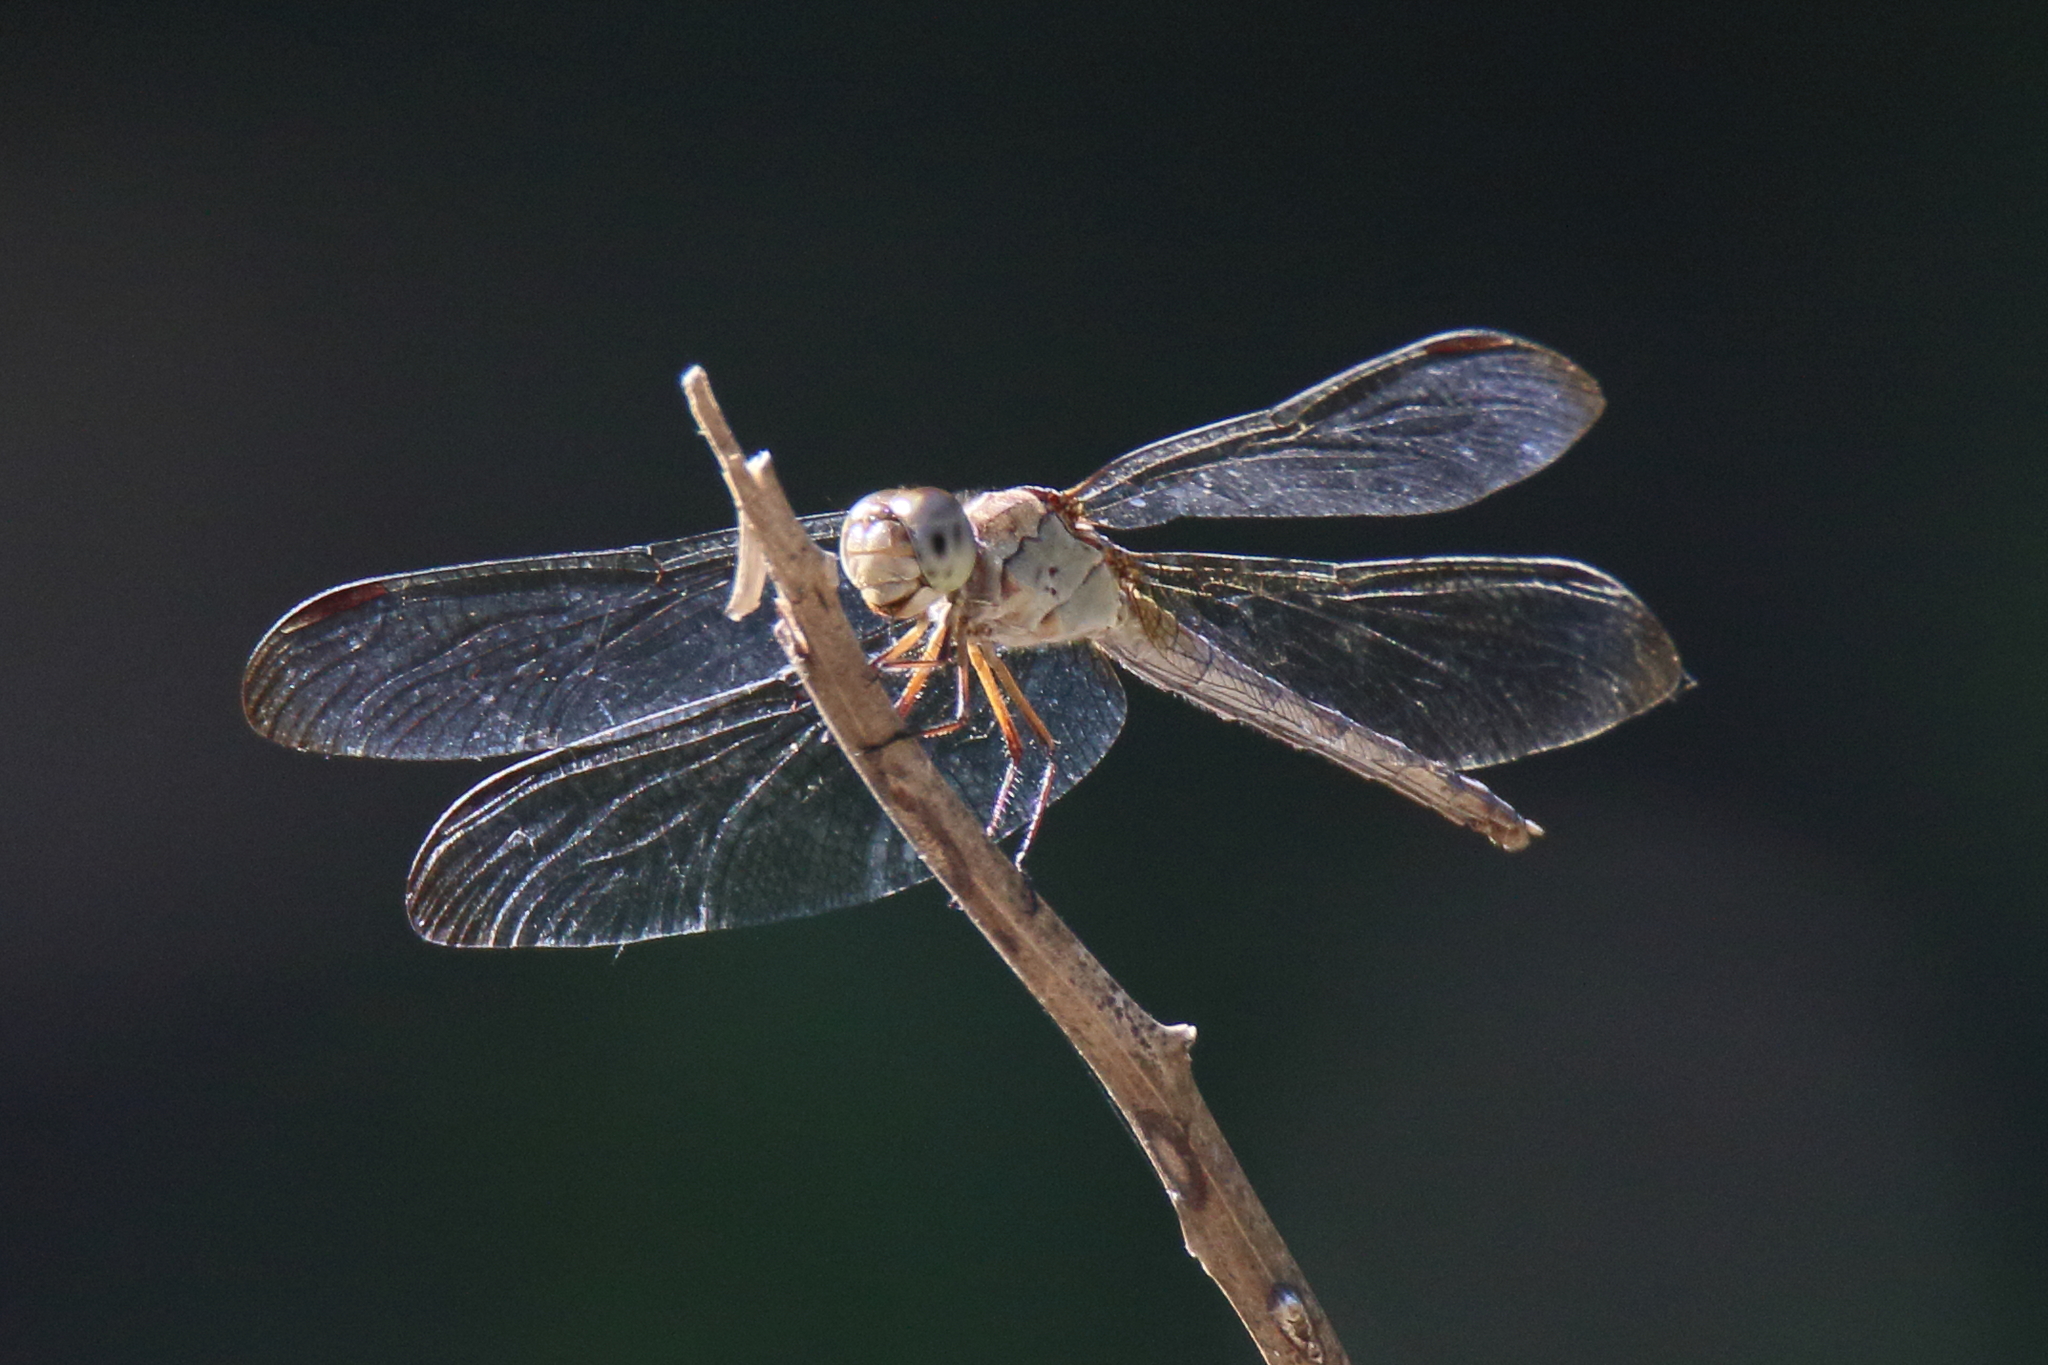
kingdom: Animalia
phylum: Arthropoda
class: Insecta
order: Odonata
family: Libellulidae
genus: Erythrodiplax
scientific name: Erythrodiplax umbrata
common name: Band-winged dragonlet
